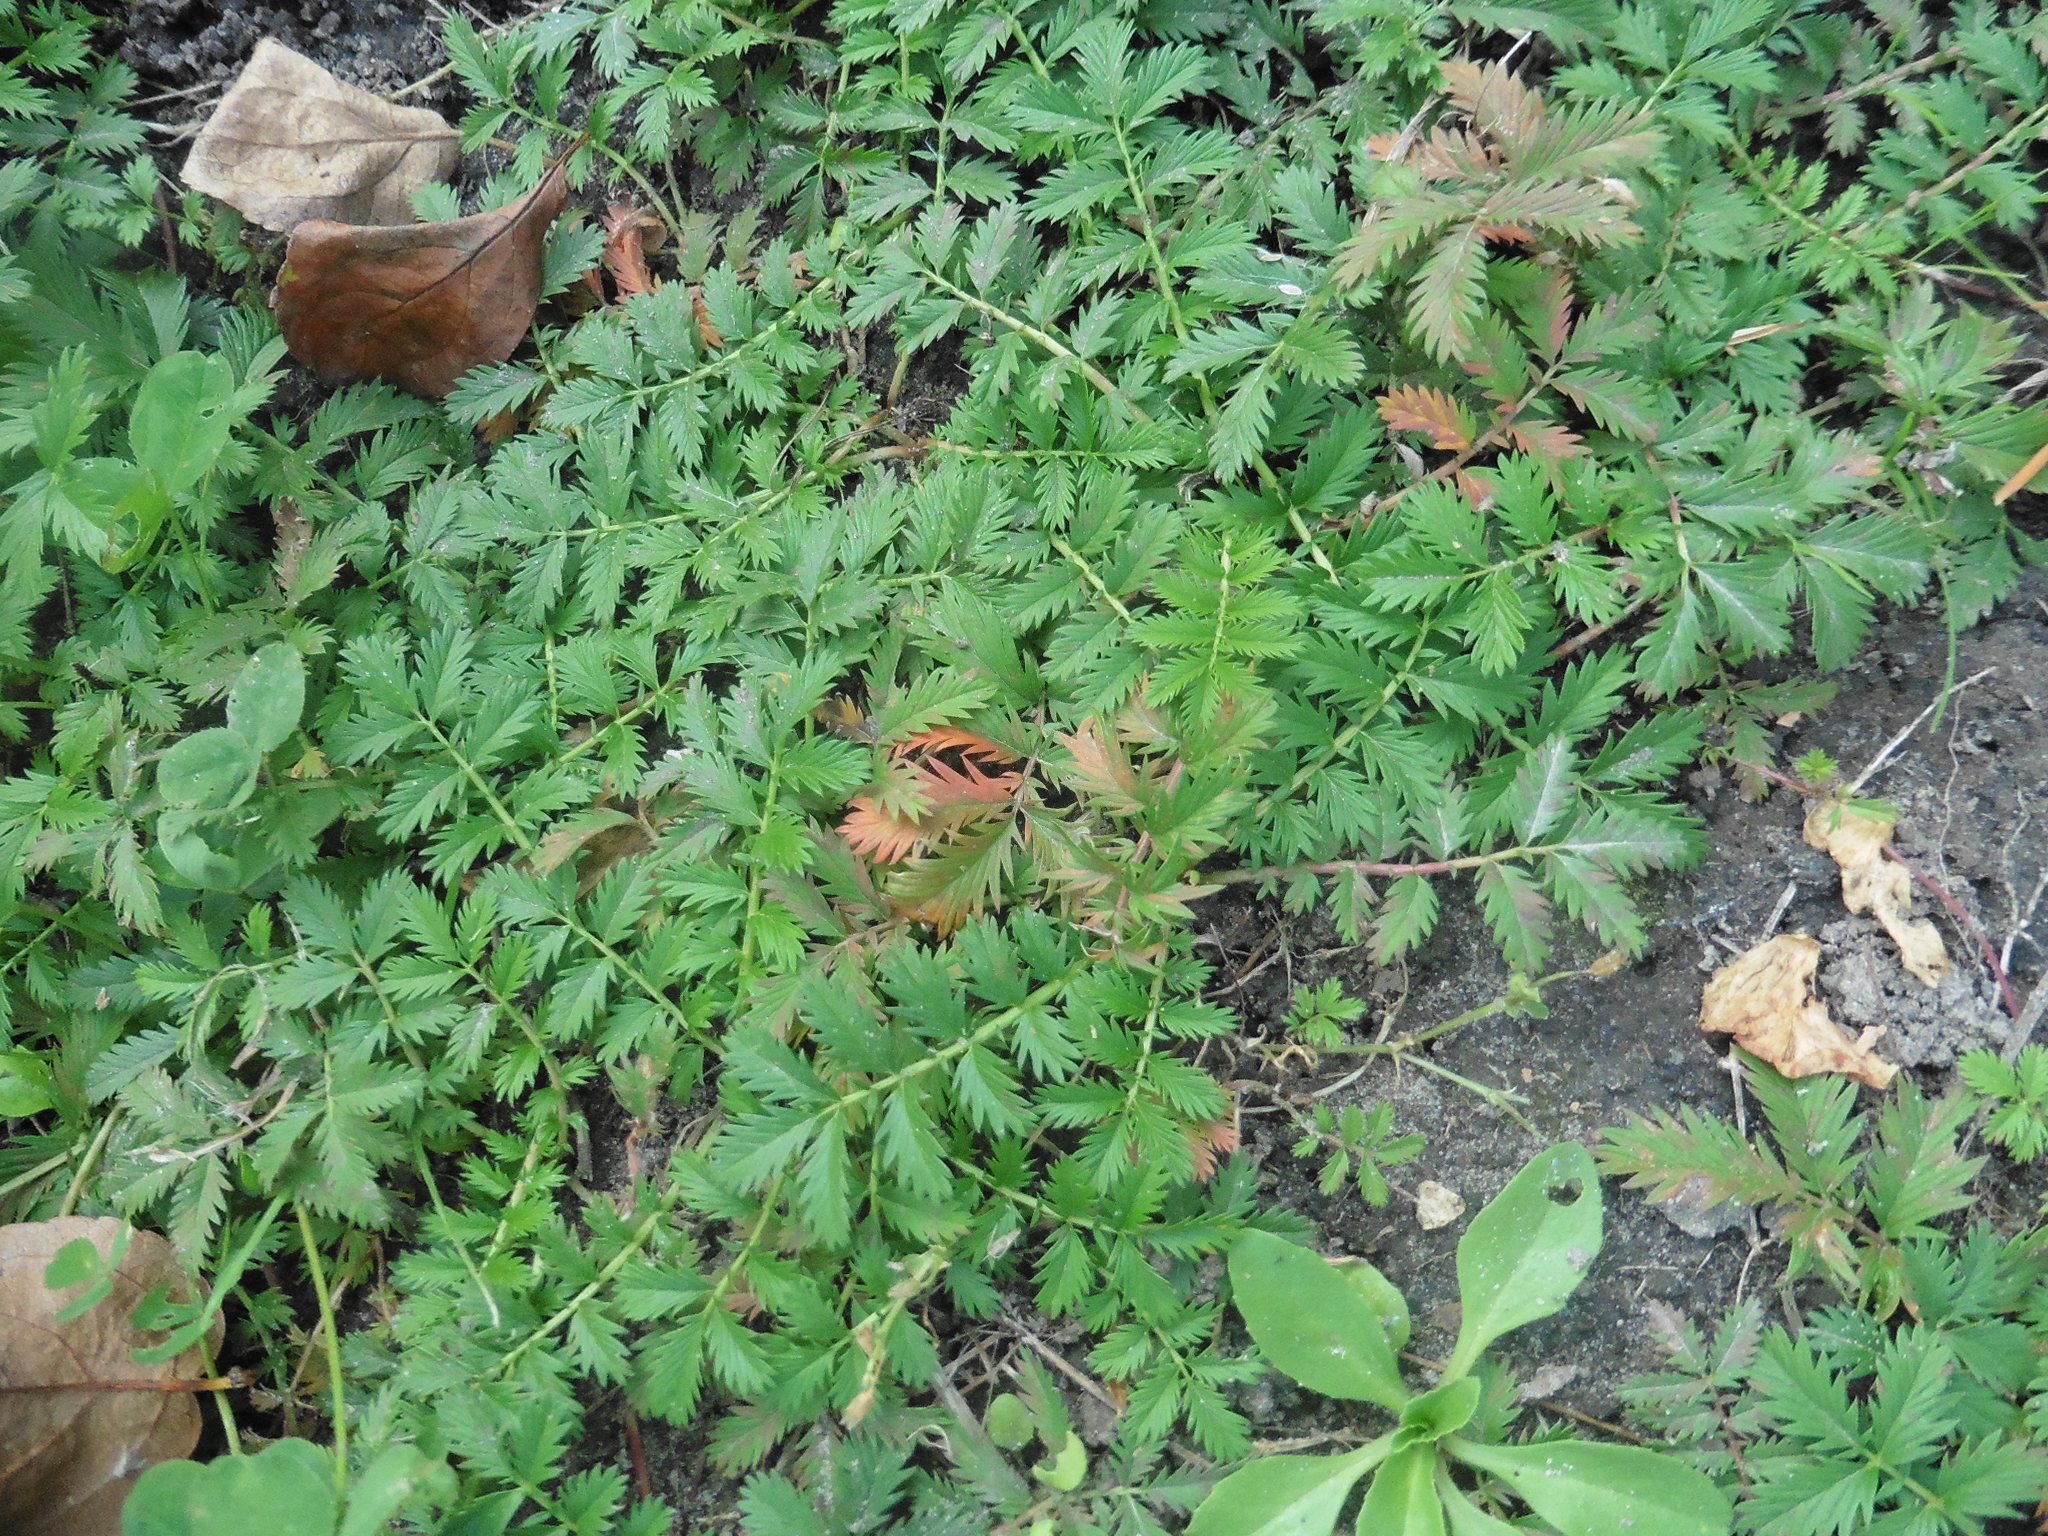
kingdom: Plantae
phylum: Tracheophyta
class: Magnoliopsida
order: Rosales
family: Rosaceae
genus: Argentina
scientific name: Argentina anserina
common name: Common silverweed
